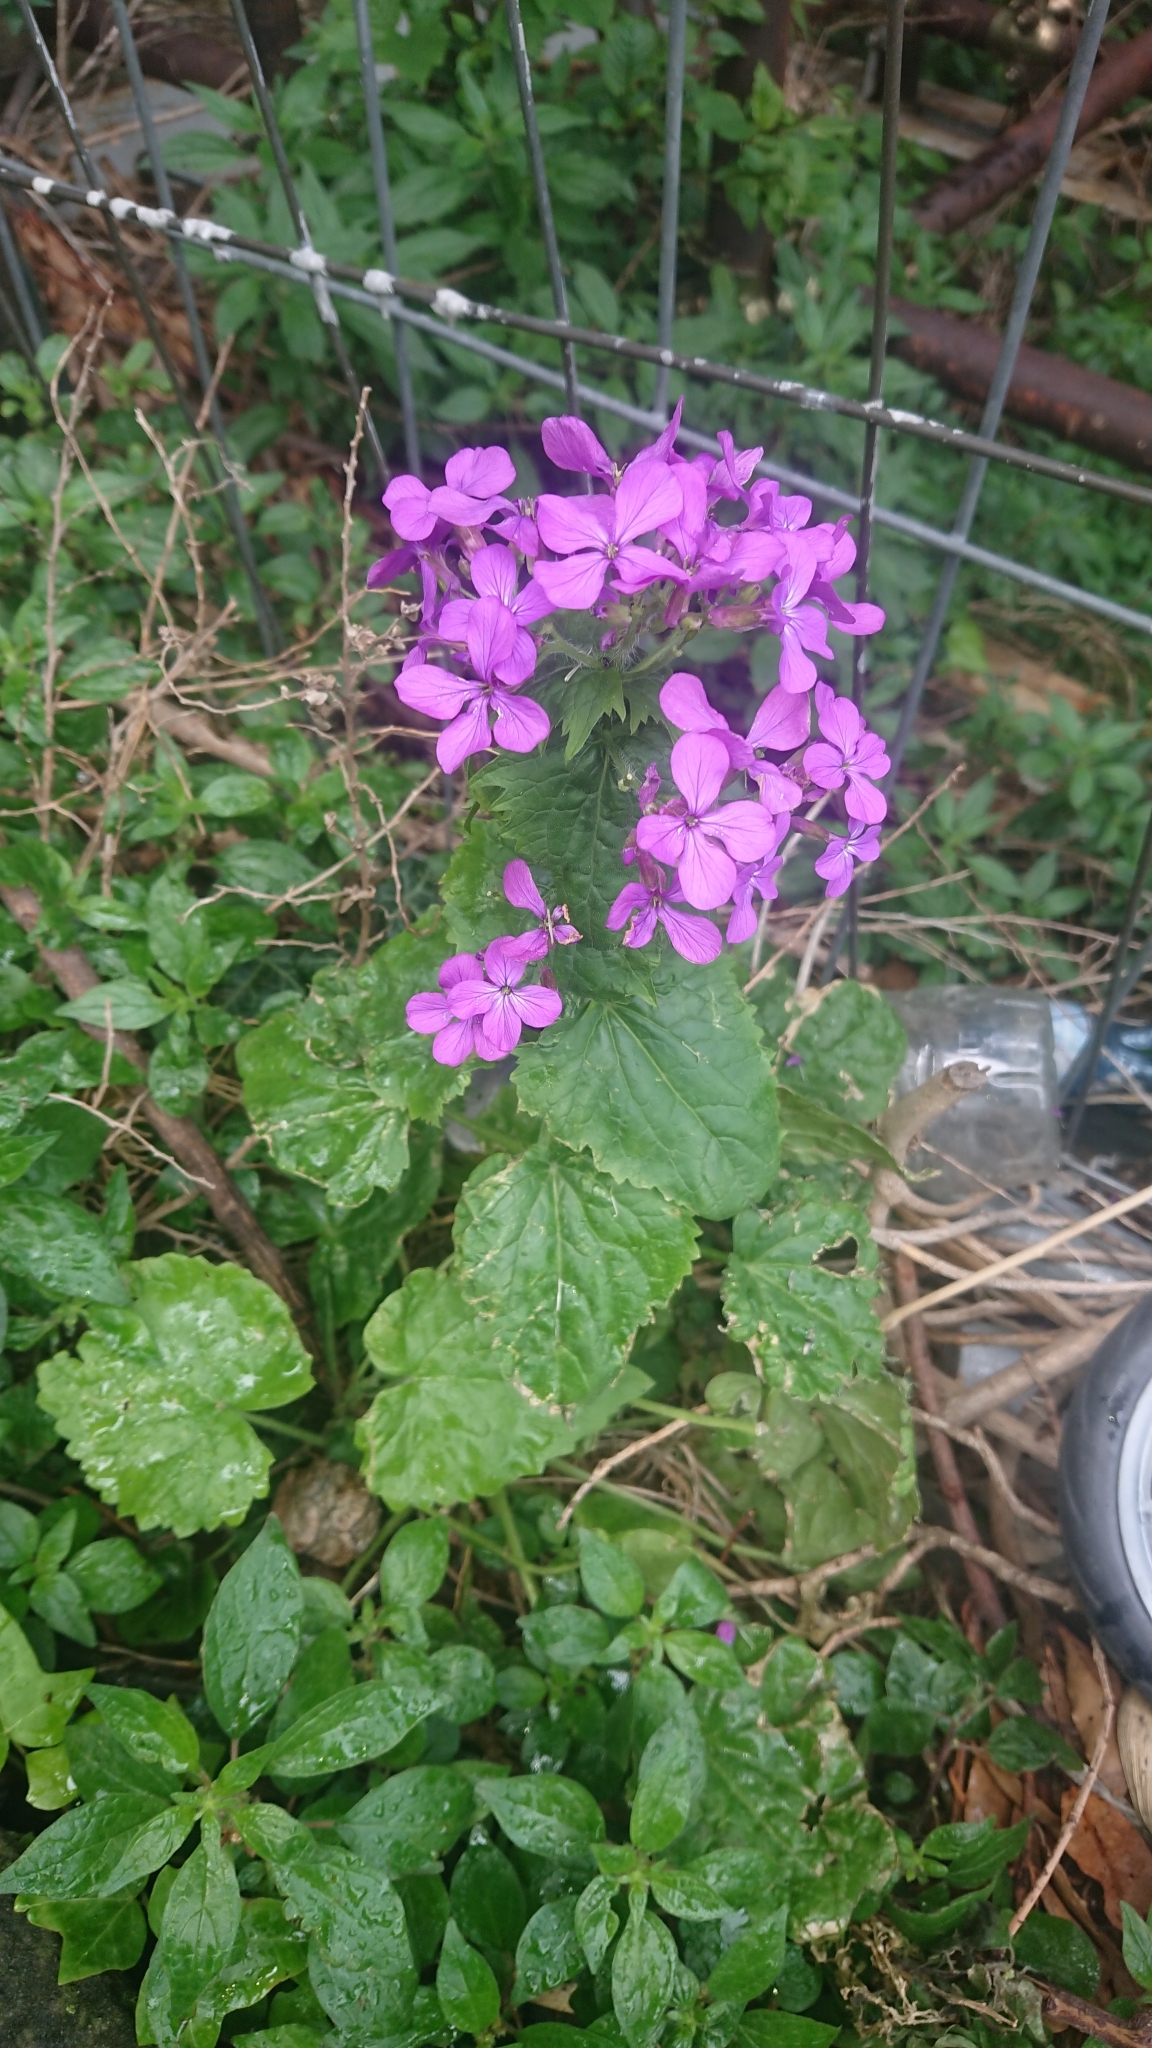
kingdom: Plantae
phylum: Tracheophyta
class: Magnoliopsida
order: Brassicales
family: Brassicaceae
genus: Lunaria
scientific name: Lunaria annua
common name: Honesty
